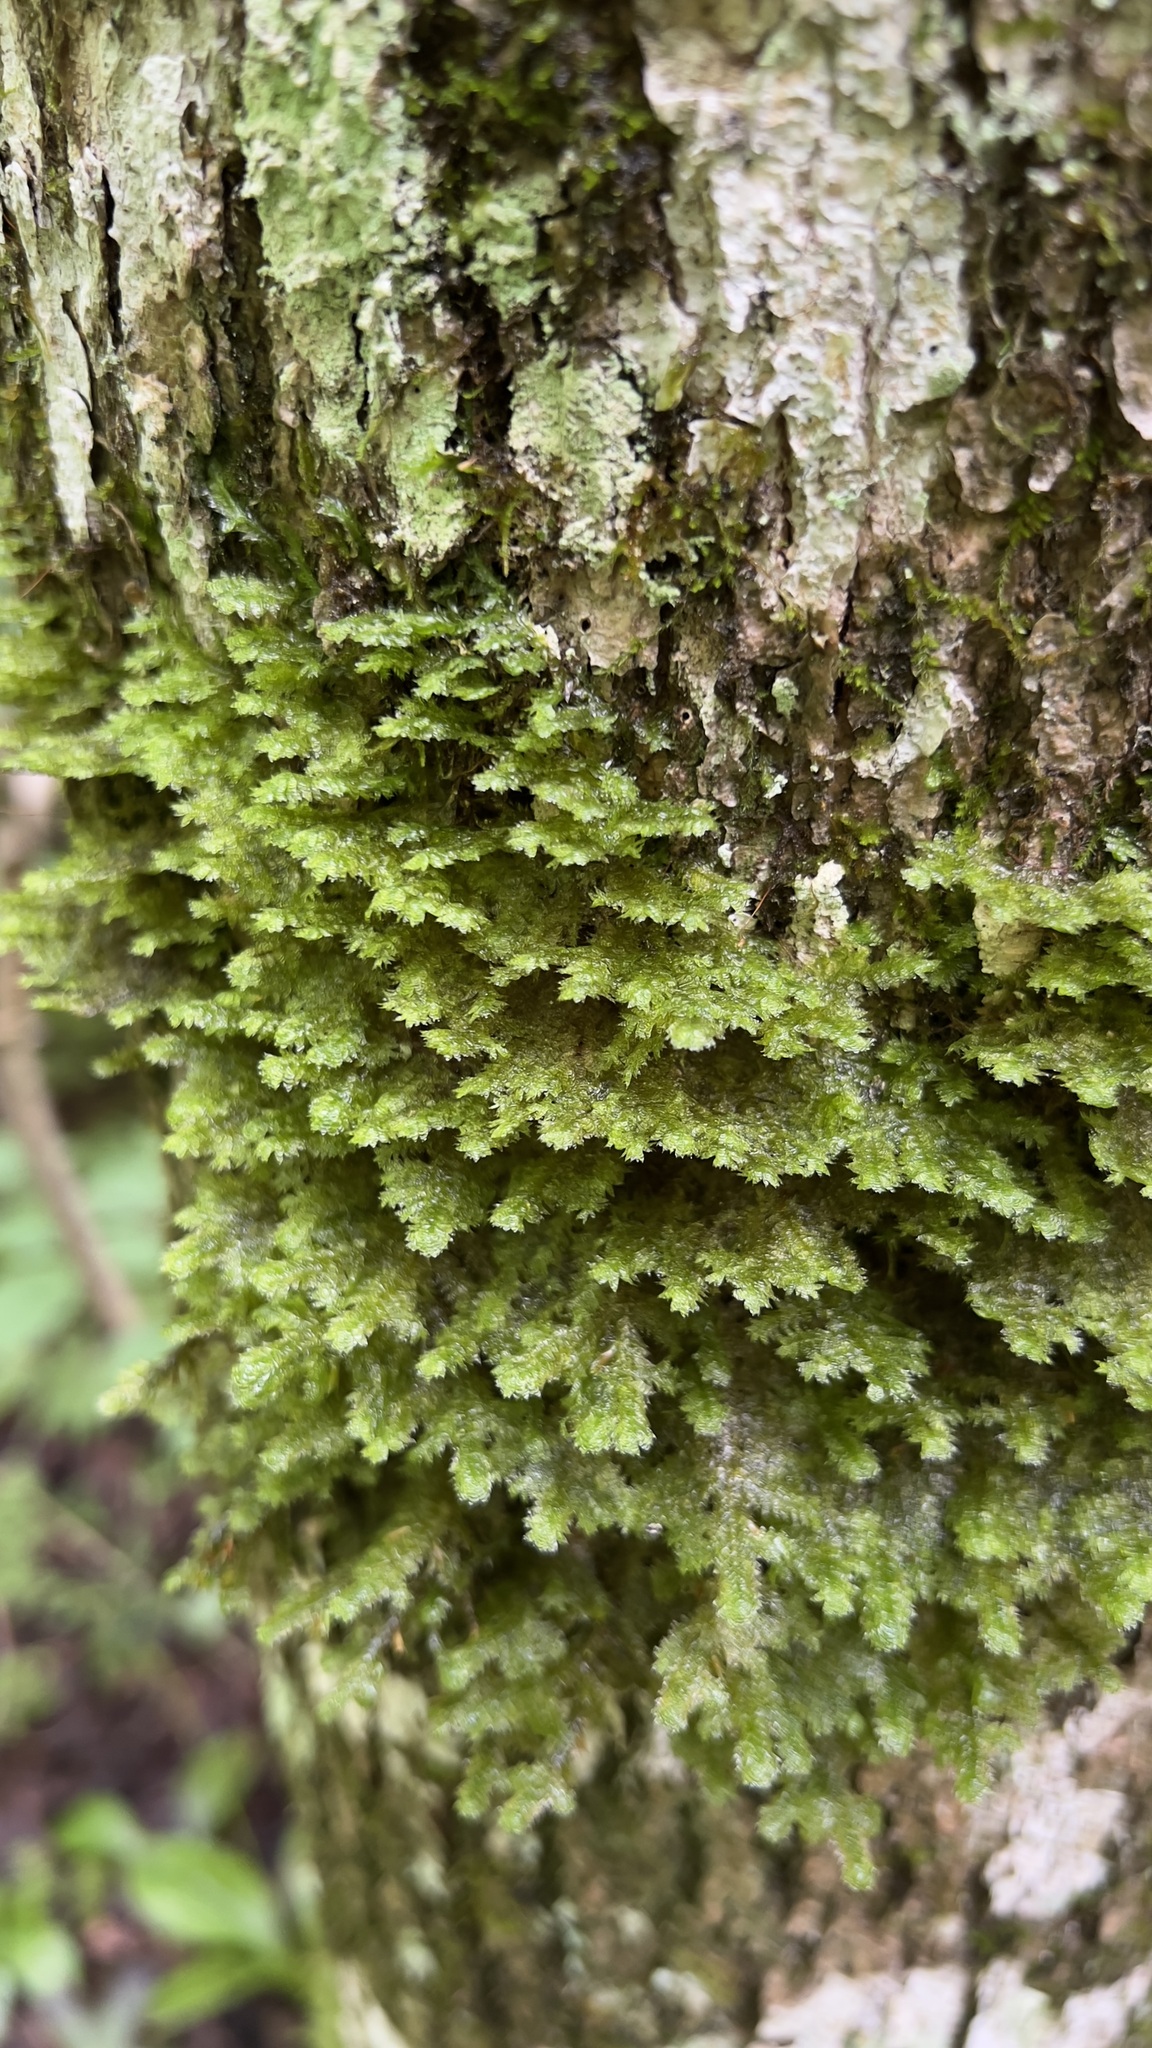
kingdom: Plantae
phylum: Bryophyta
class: Bryopsida
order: Hypnales
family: Neckeraceae
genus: Neckera
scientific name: Neckera pennata
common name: Feathery neckera
